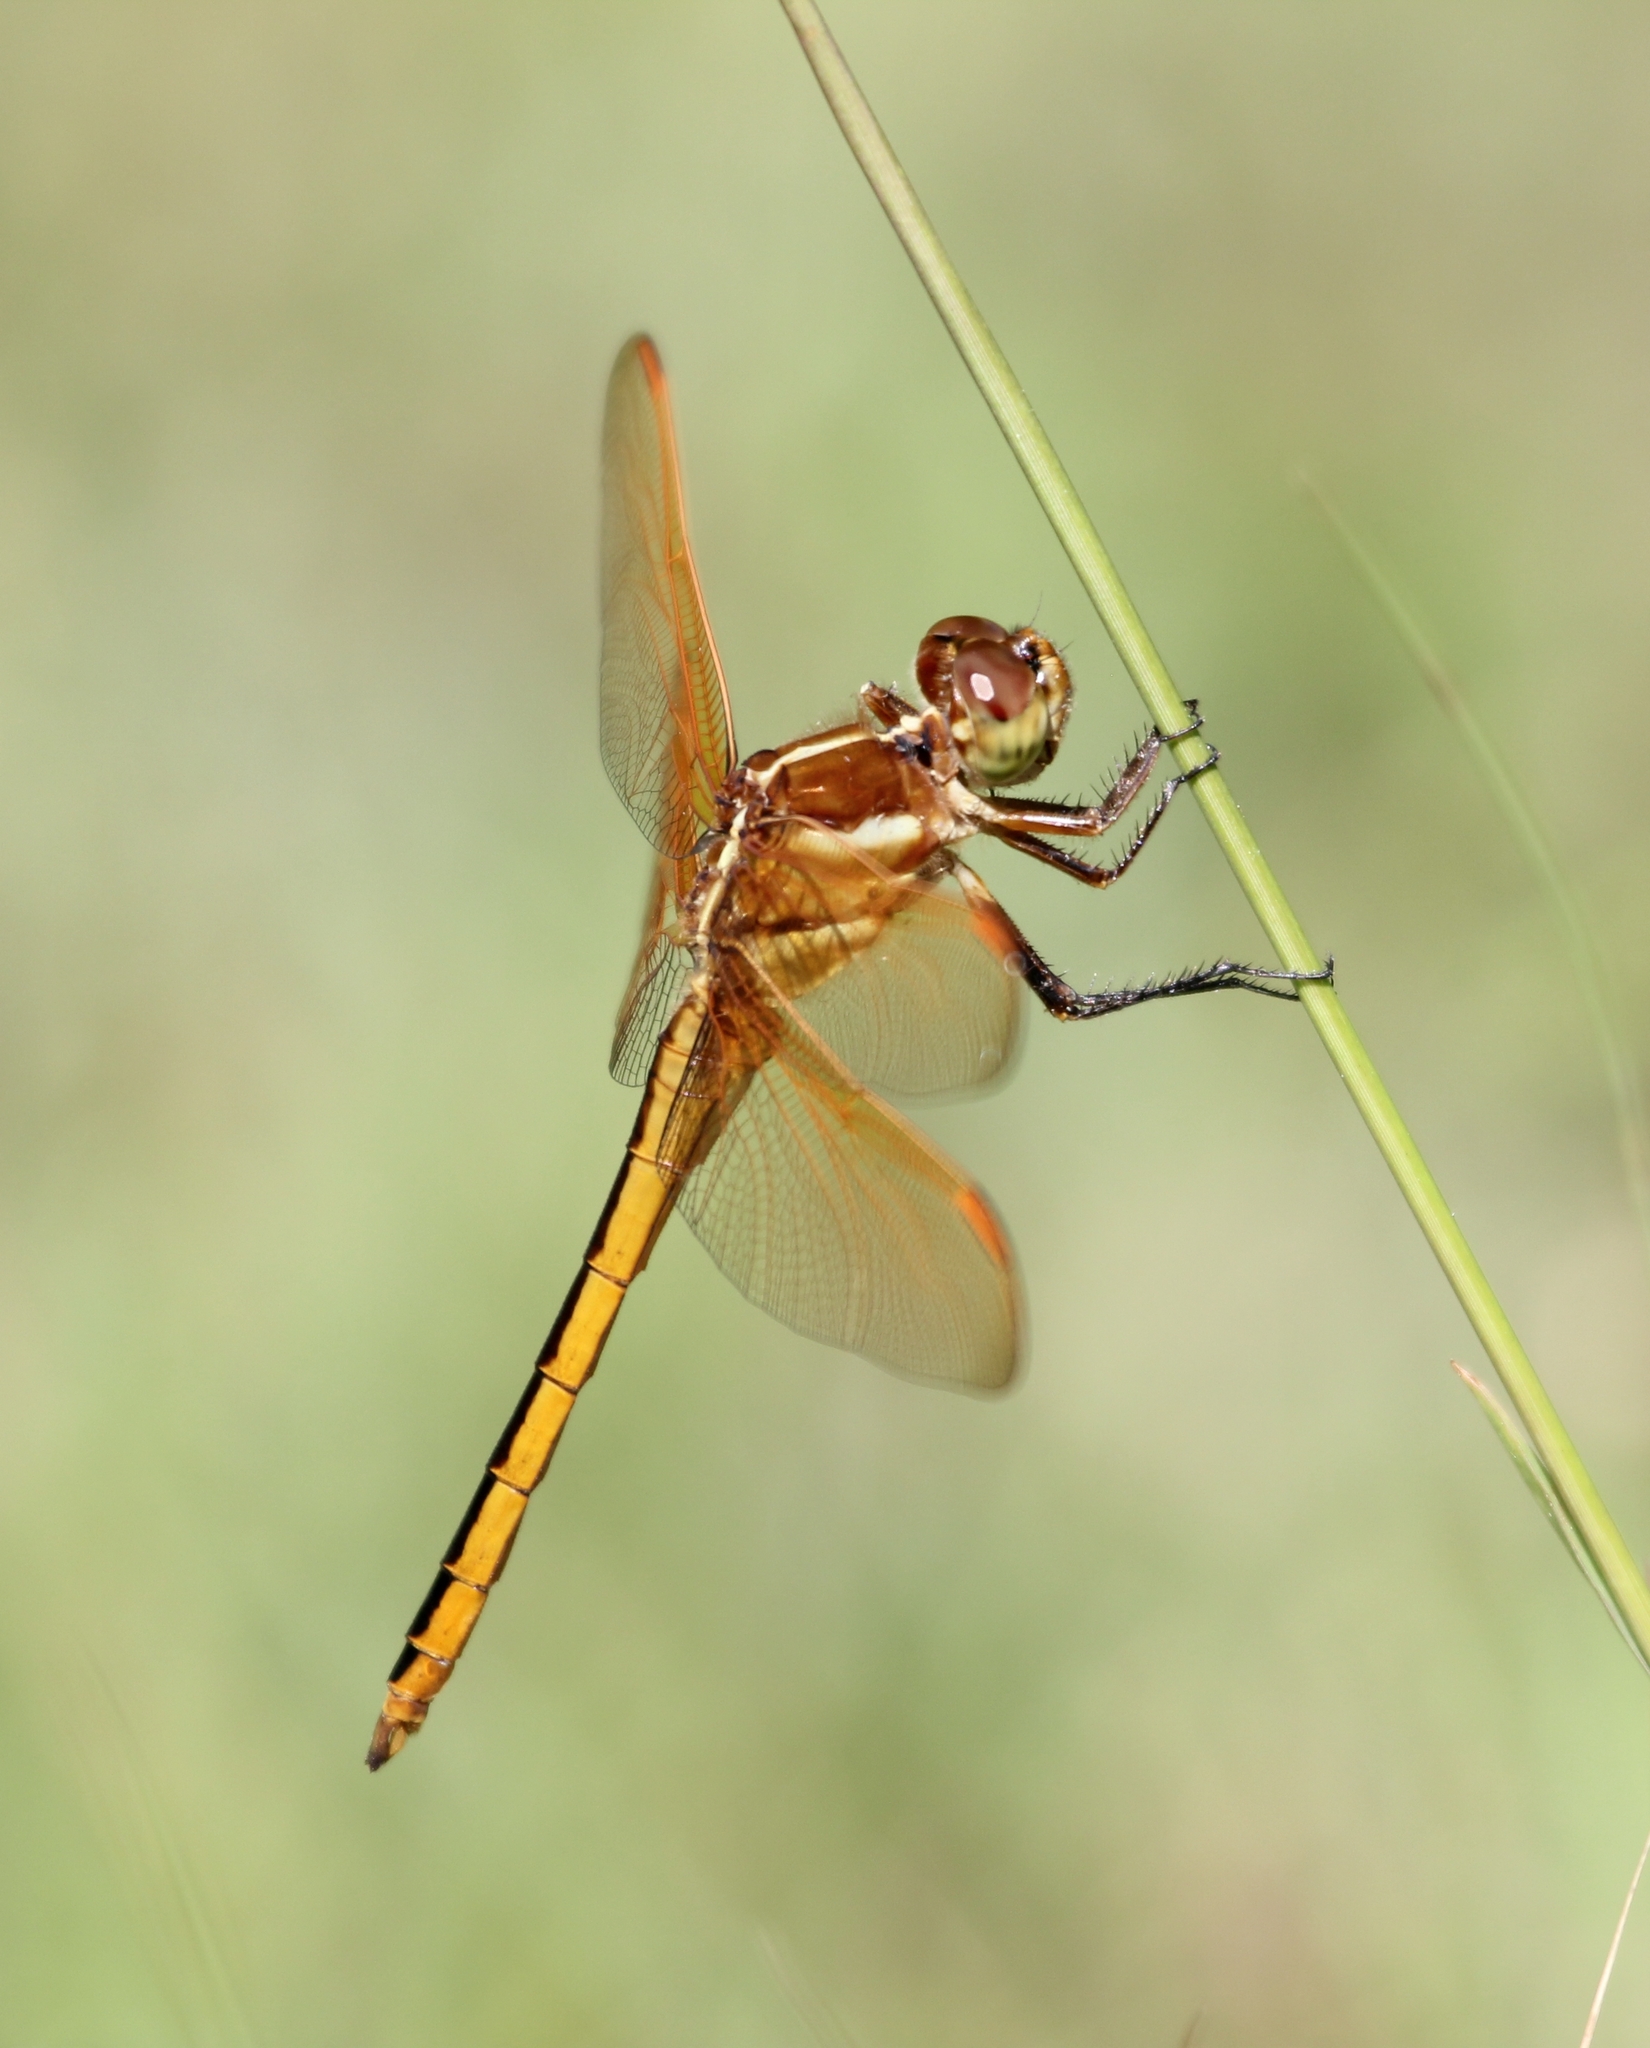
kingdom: Animalia
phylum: Arthropoda
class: Insecta
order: Odonata
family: Libellulidae
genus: Libellula
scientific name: Libellula auripennis
